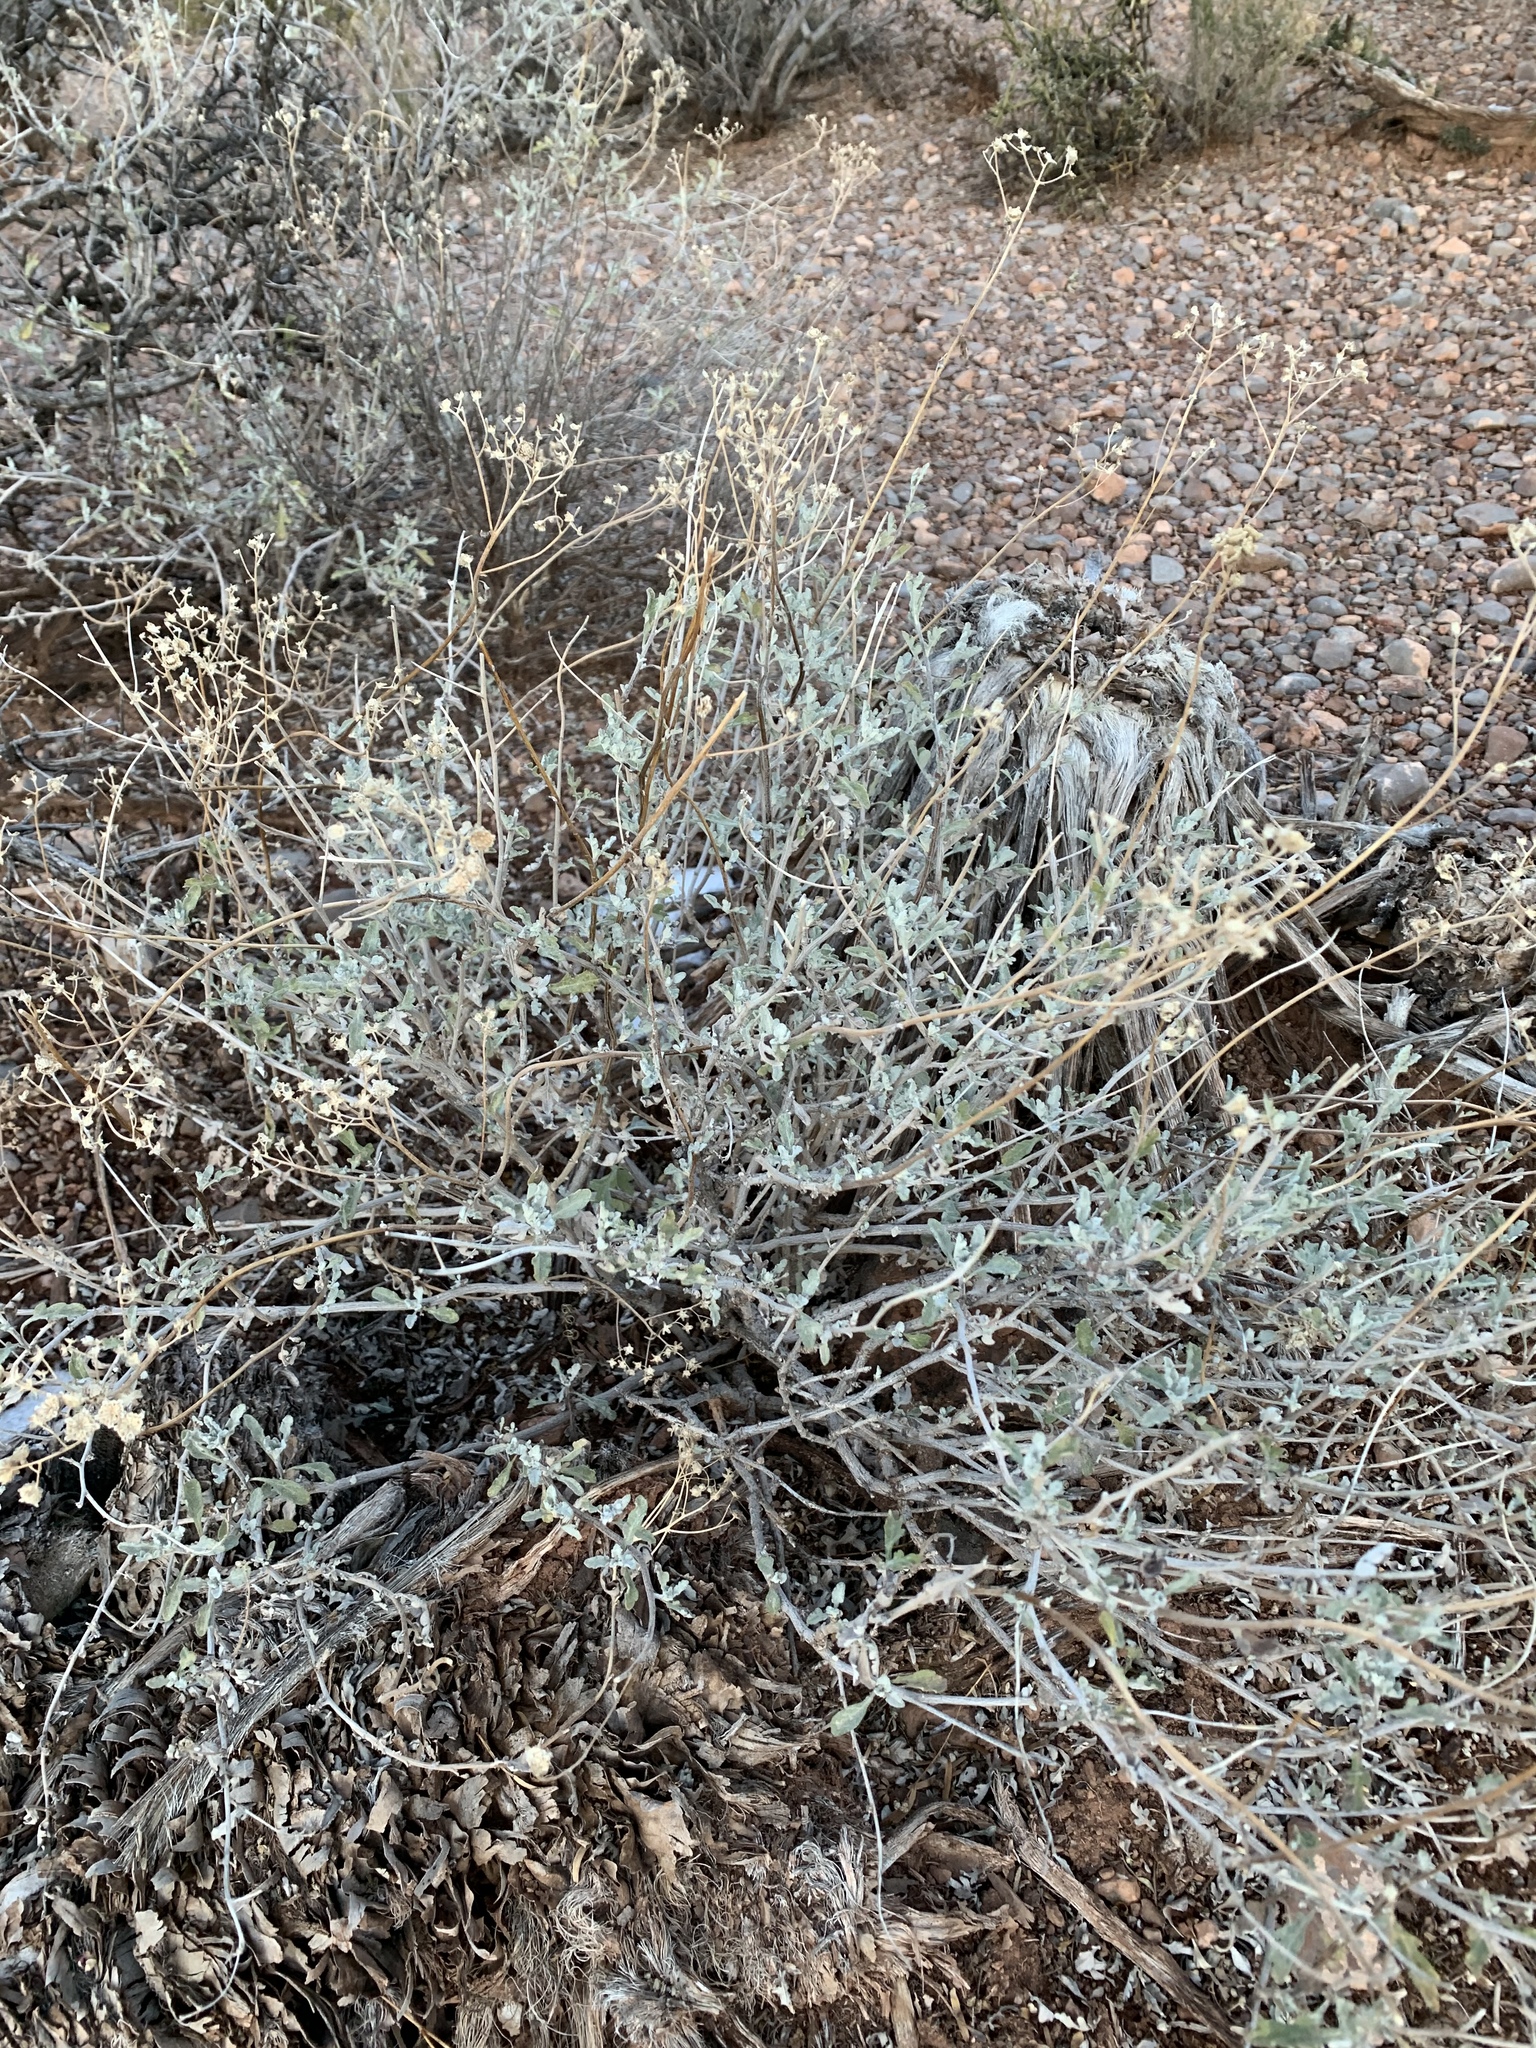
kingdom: Plantae
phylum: Tracheophyta
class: Magnoliopsida
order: Asterales
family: Asteraceae
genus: Parthenium
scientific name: Parthenium incanum
